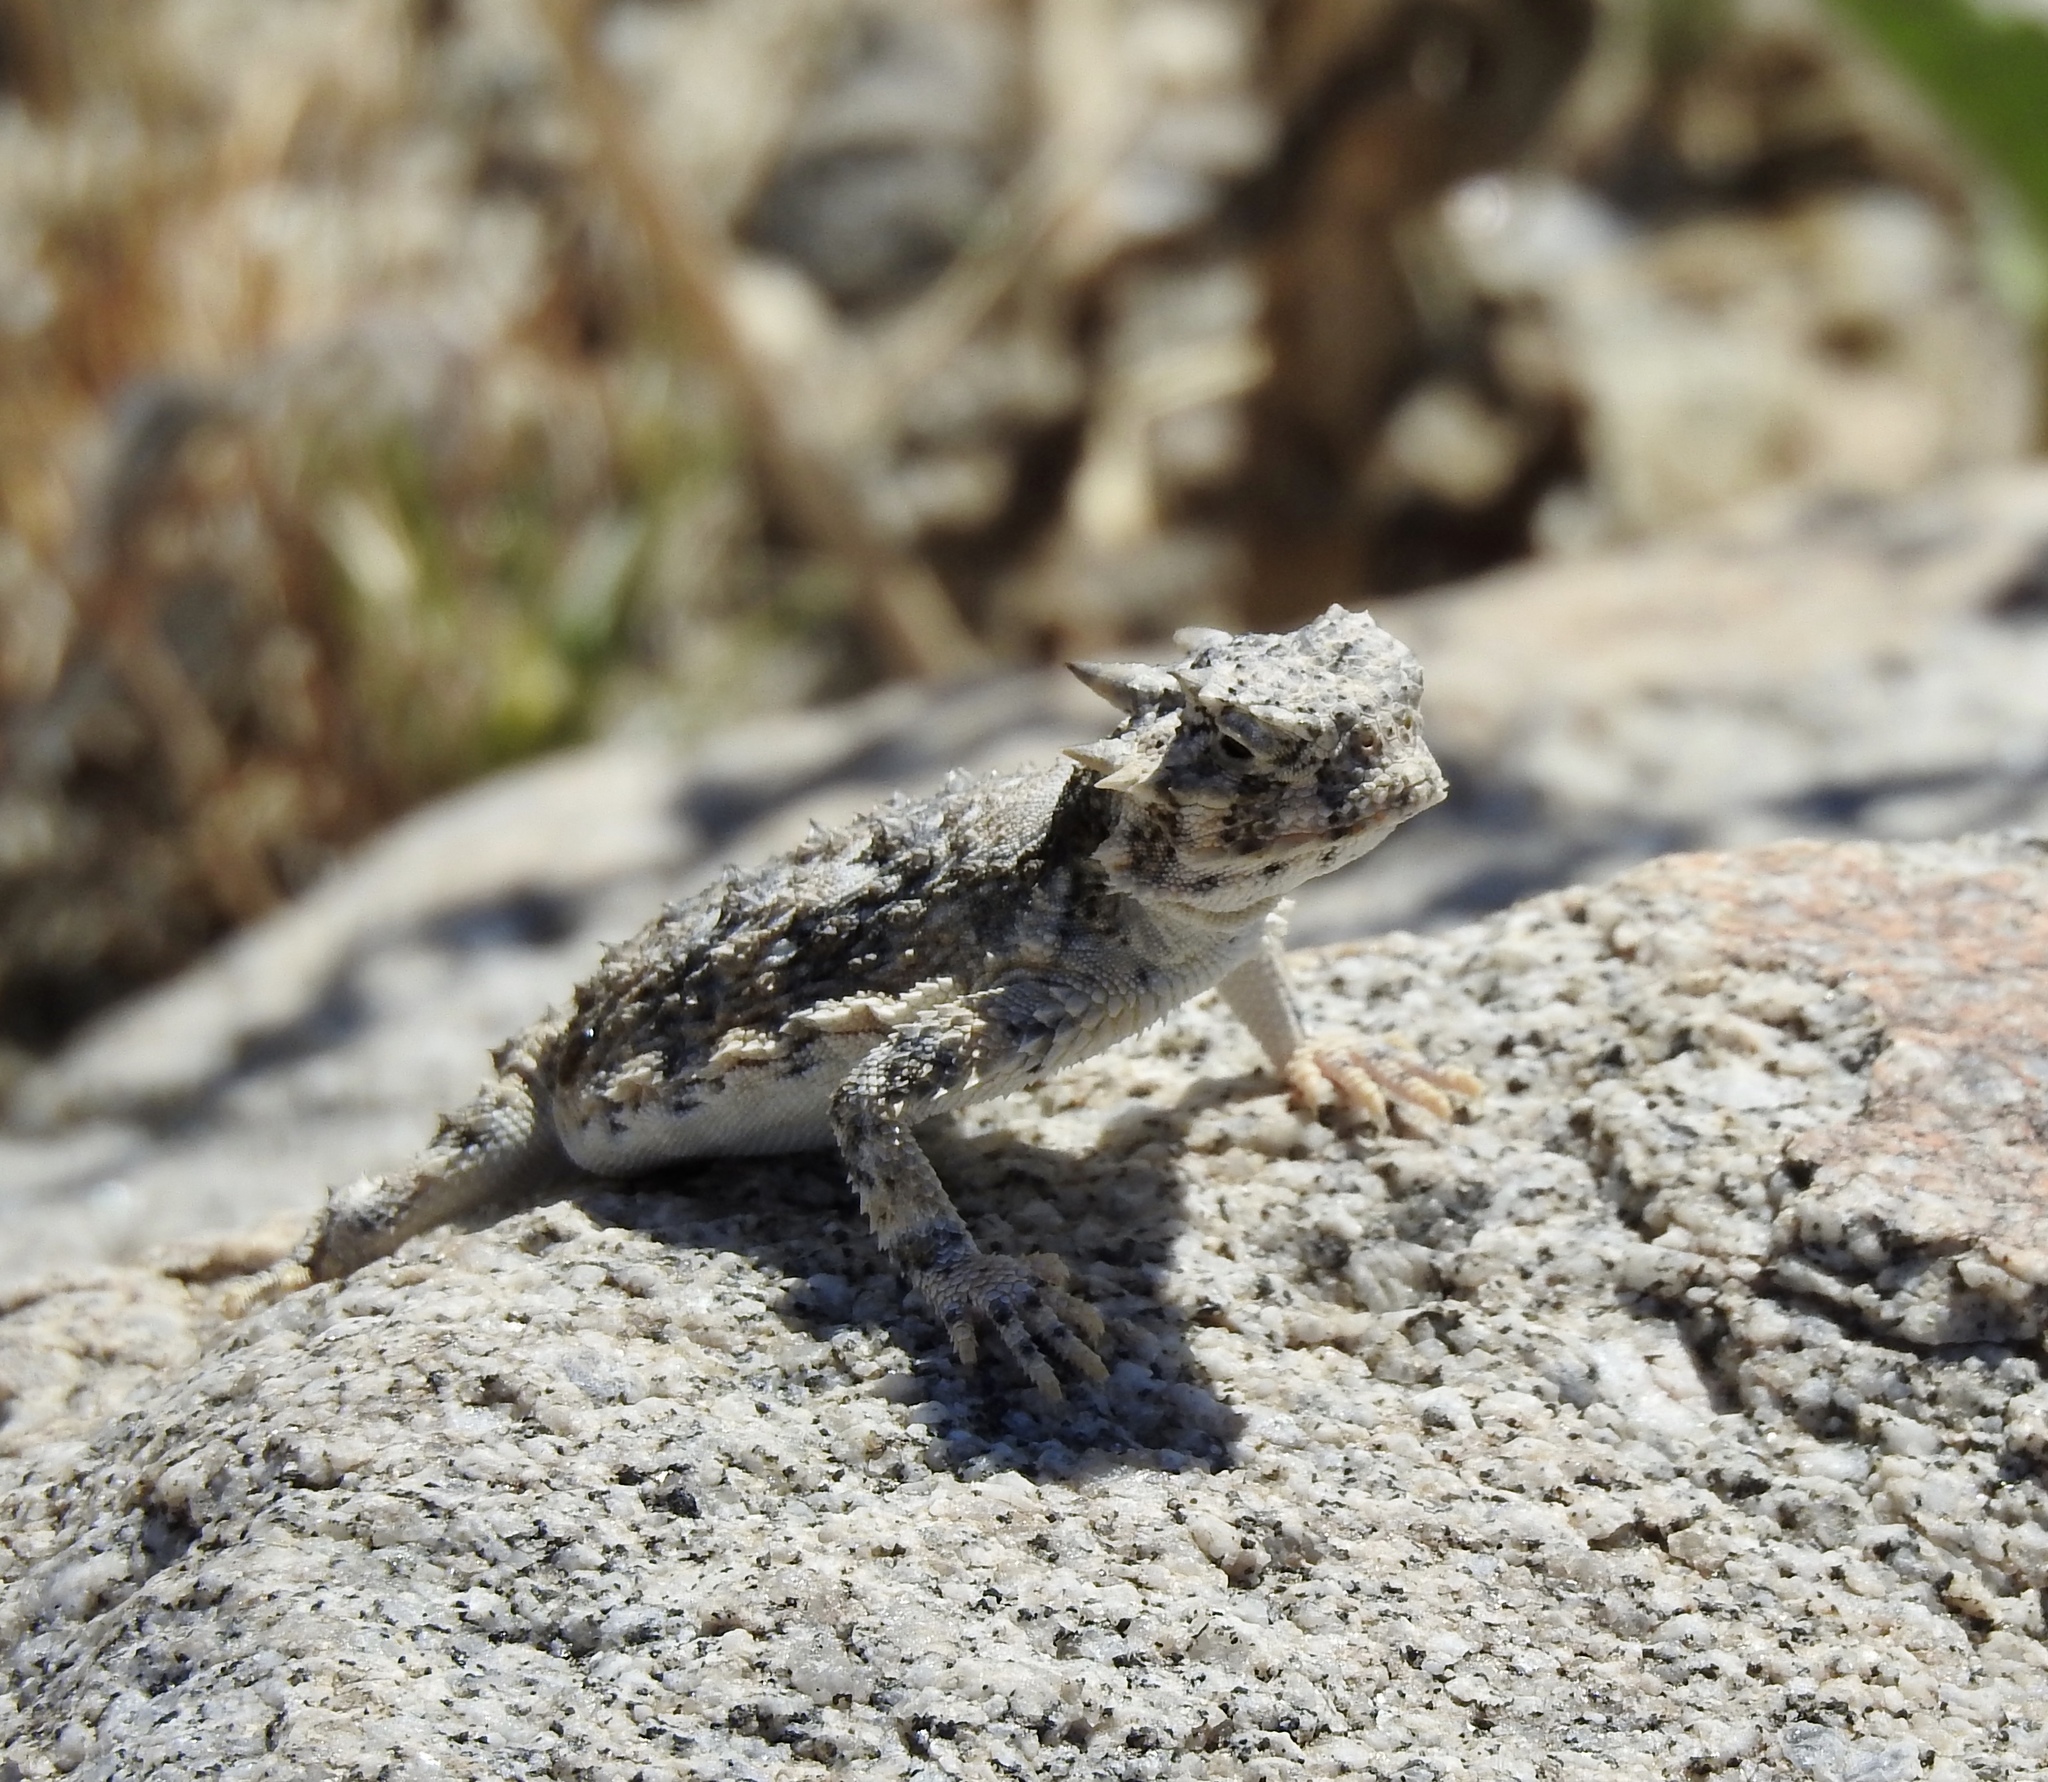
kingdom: Animalia
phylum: Chordata
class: Squamata
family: Phrynosomatidae
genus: Phrynosoma
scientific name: Phrynosoma platyrhinos
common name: Desert horned lizard
